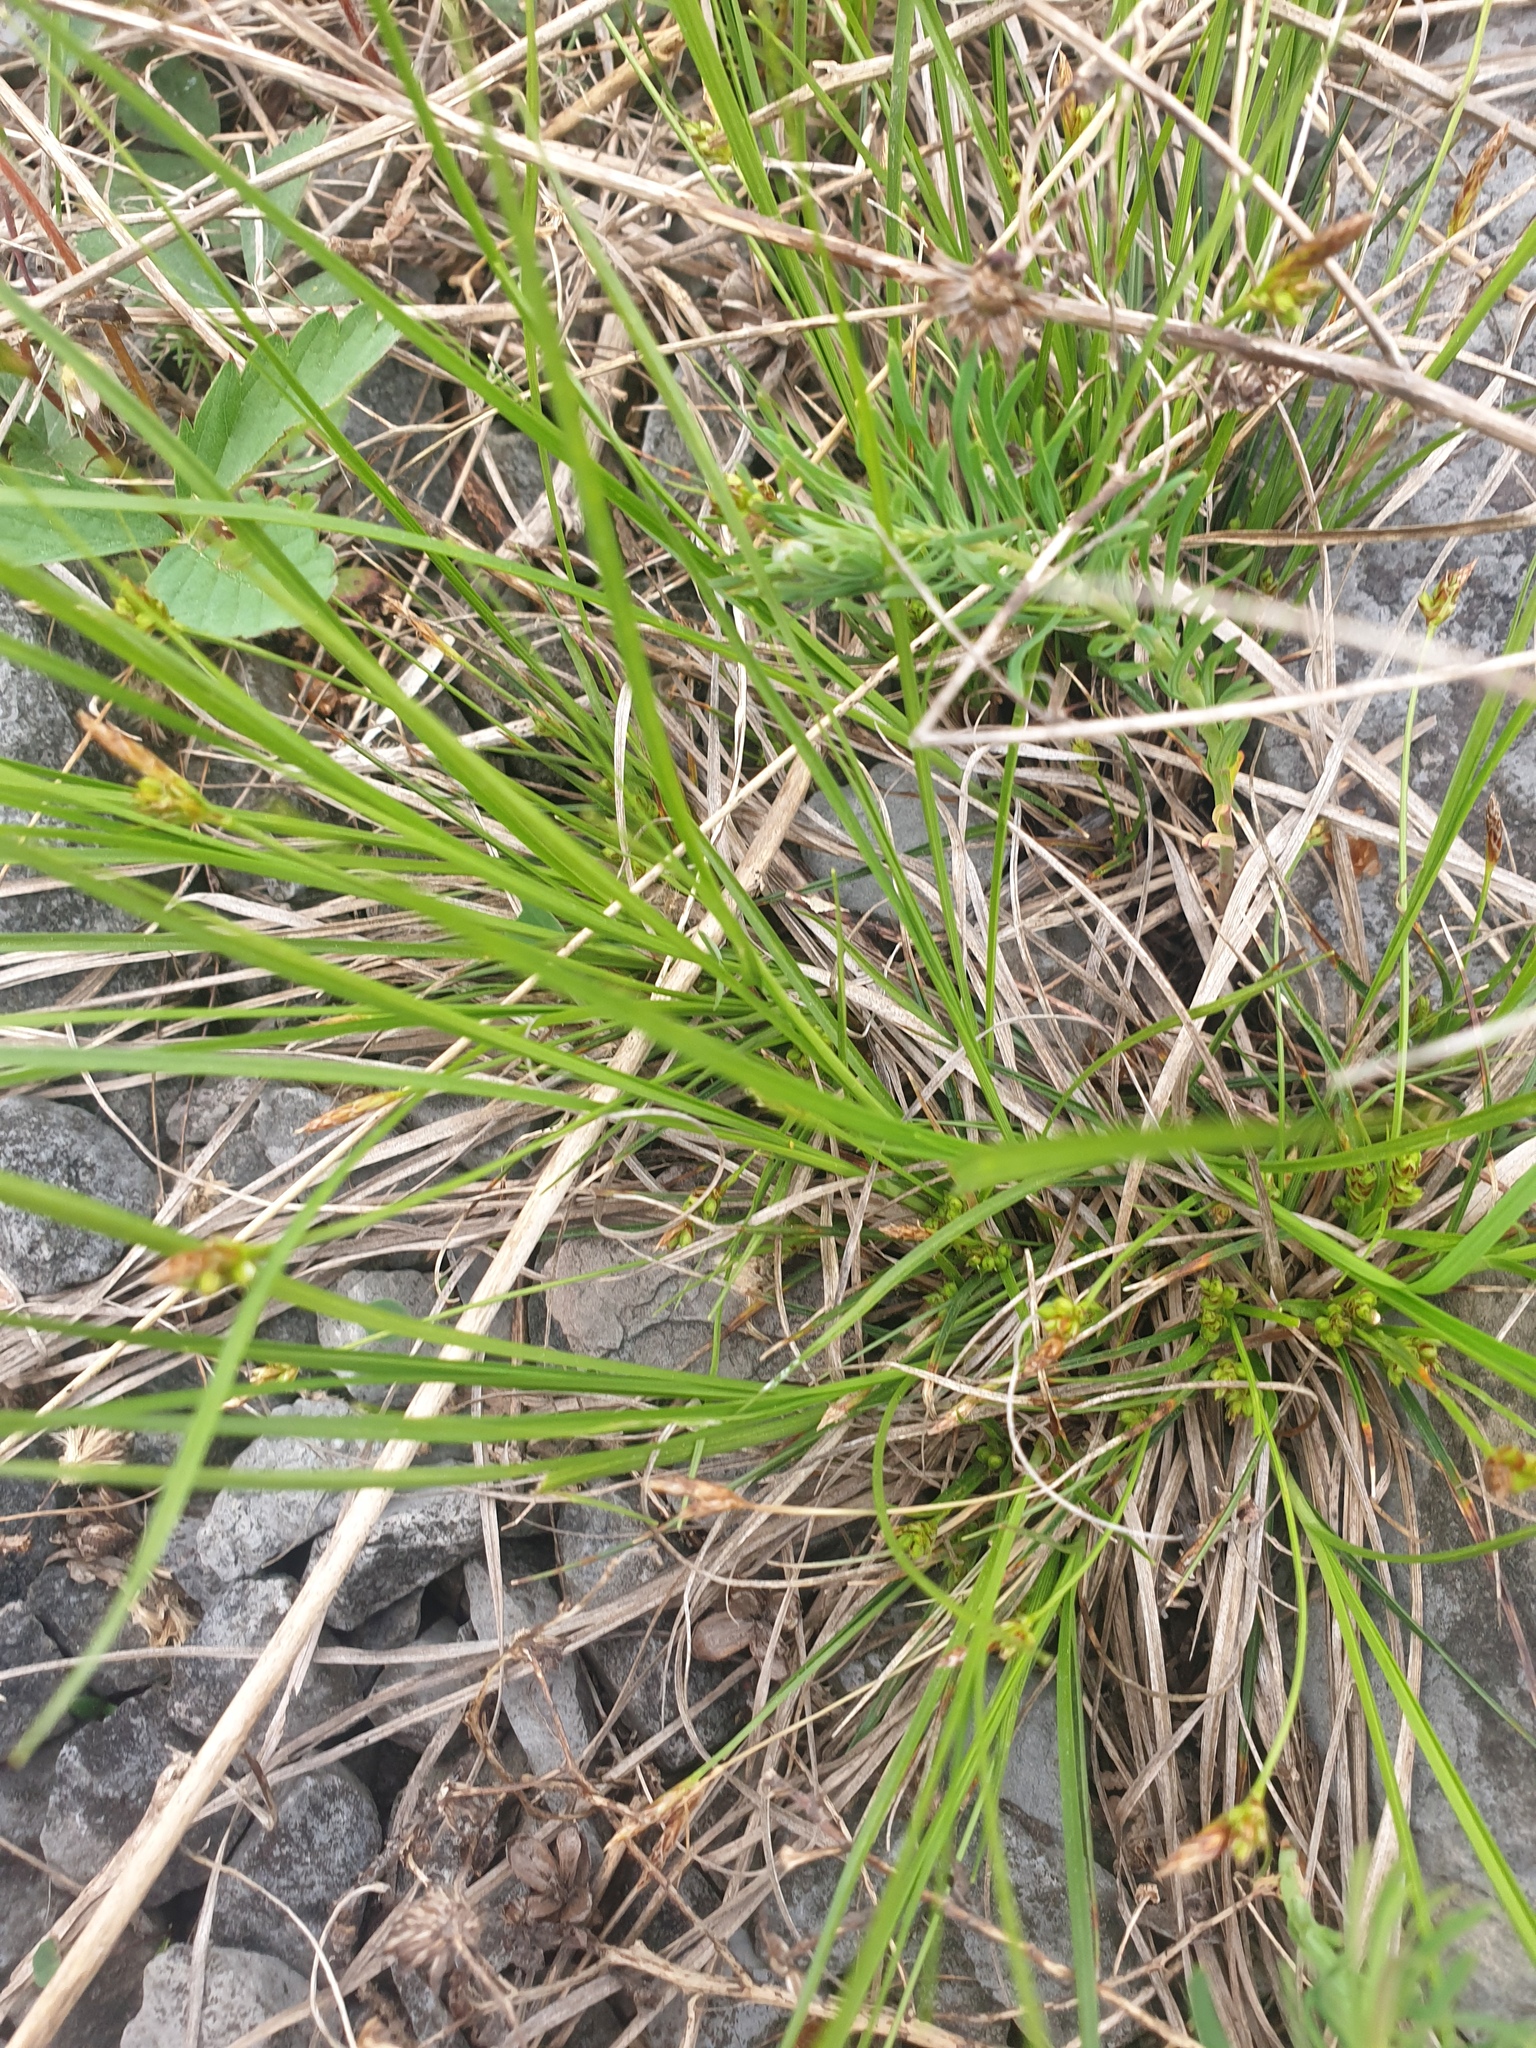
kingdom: Plantae
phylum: Tracheophyta
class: Liliopsida
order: Poales
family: Cyperaceae
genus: Carex
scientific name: Carex umbellata
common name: Early oak sedge
